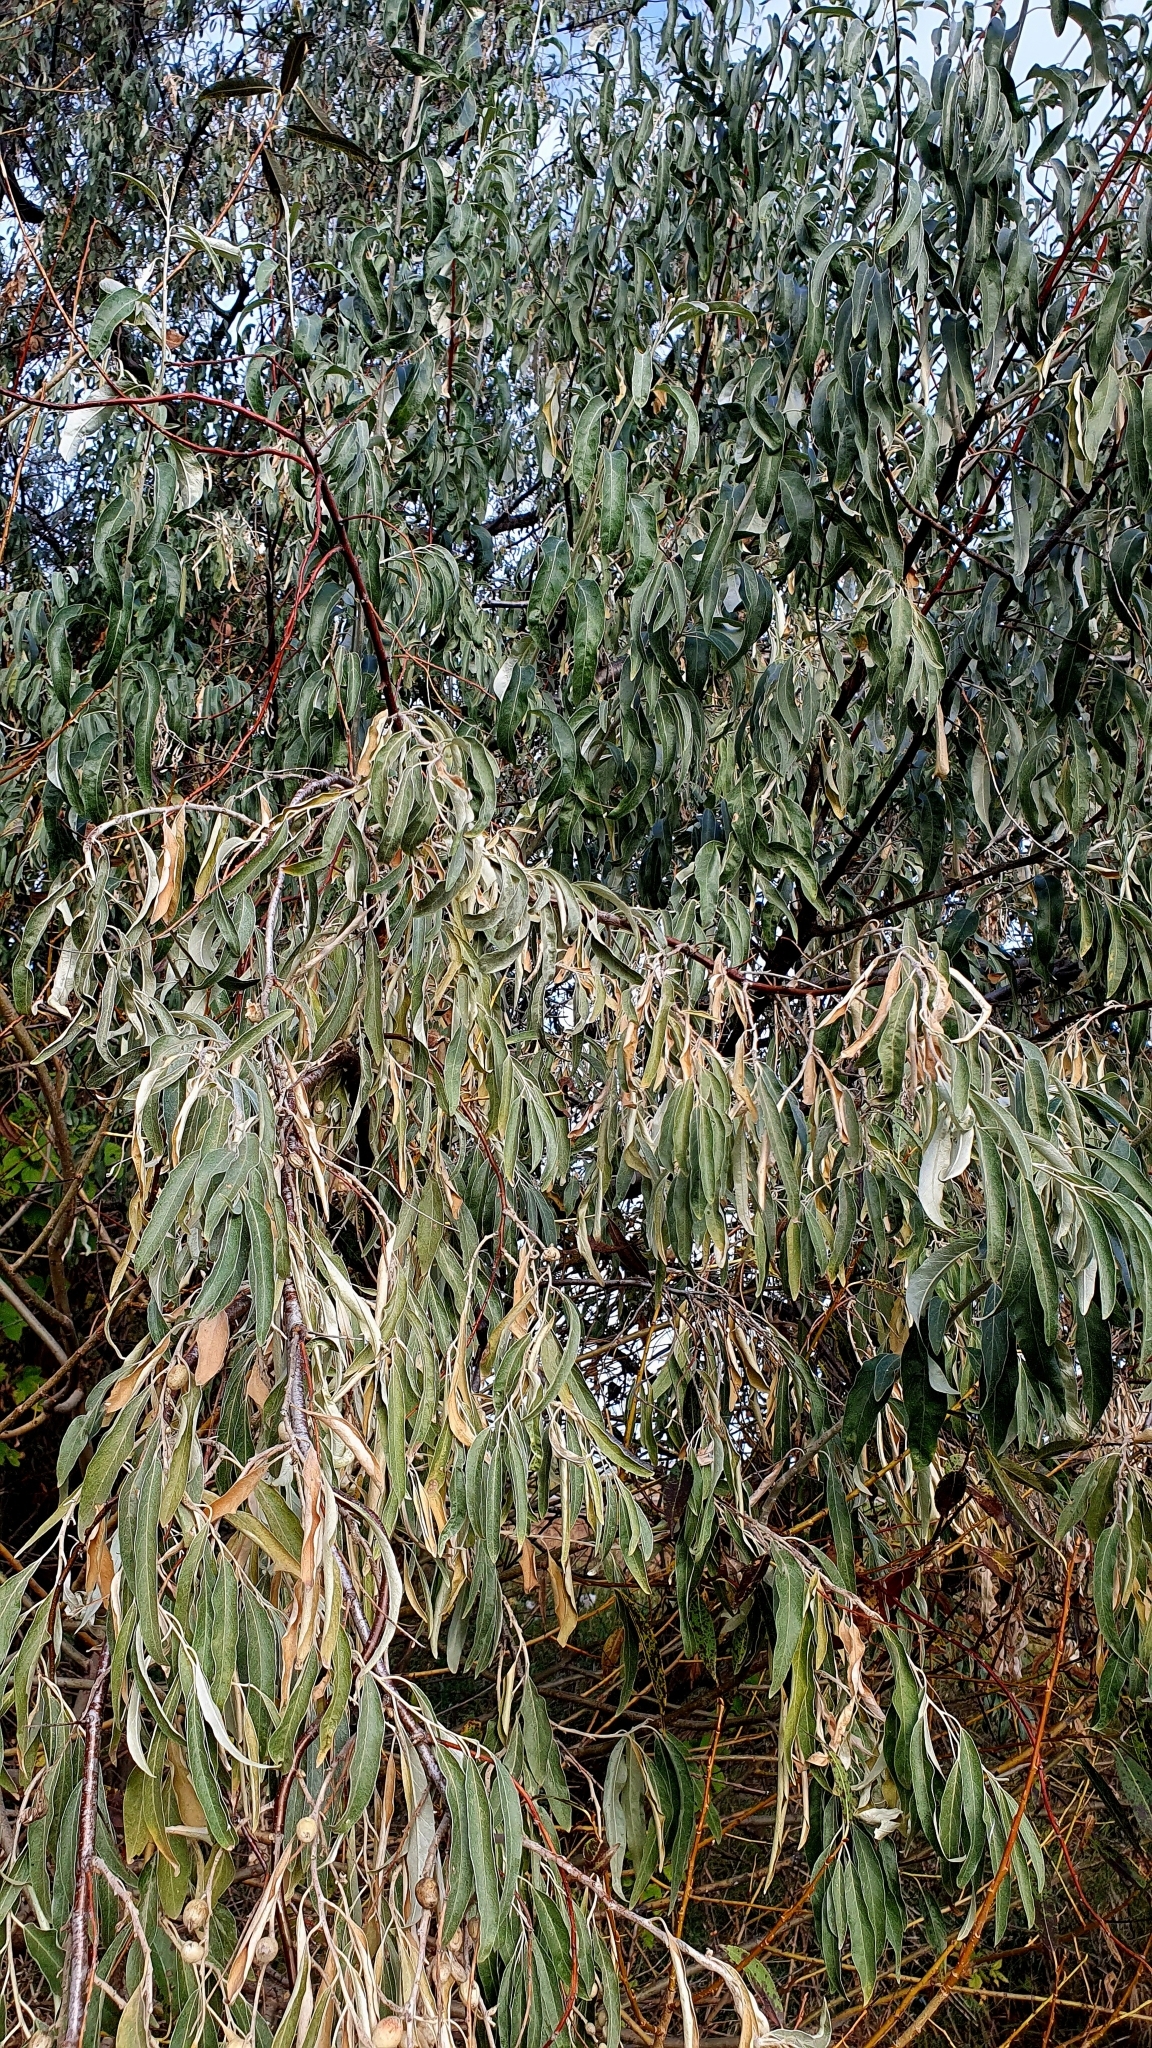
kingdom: Plantae
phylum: Tracheophyta
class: Magnoliopsida
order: Rosales
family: Elaeagnaceae
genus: Elaeagnus
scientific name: Elaeagnus angustifolia
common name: Russian olive
